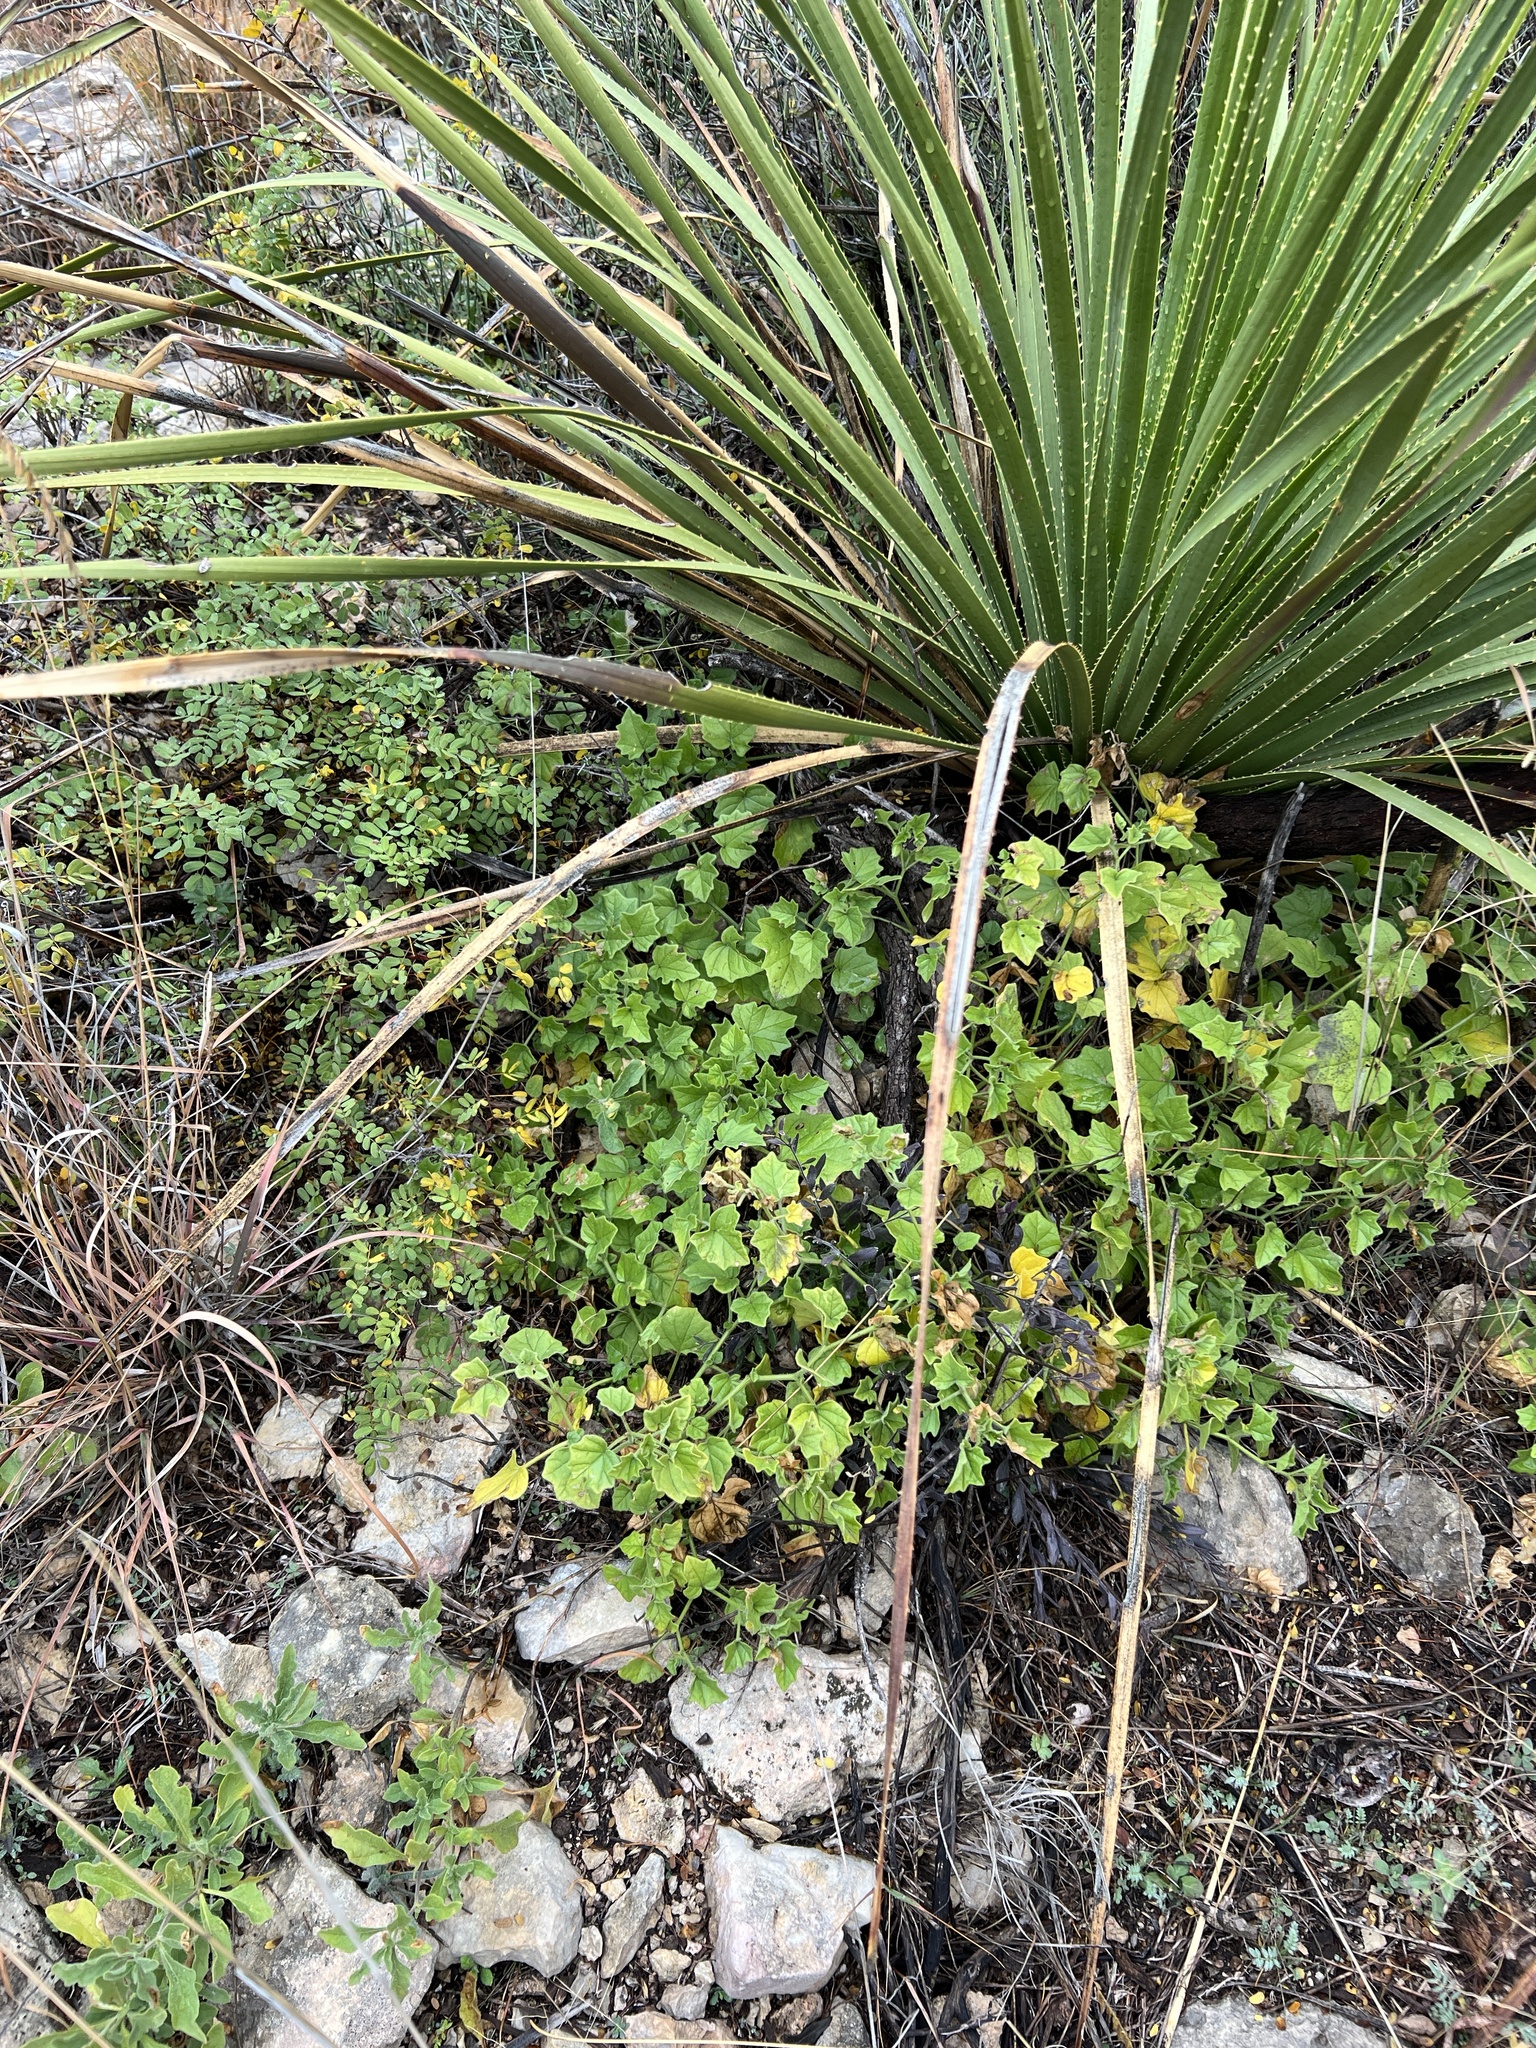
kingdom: Plantae
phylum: Tracheophyta
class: Magnoliopsida
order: Solanales
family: Solanaceae
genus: Physalis
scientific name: Physalis hederifolia
